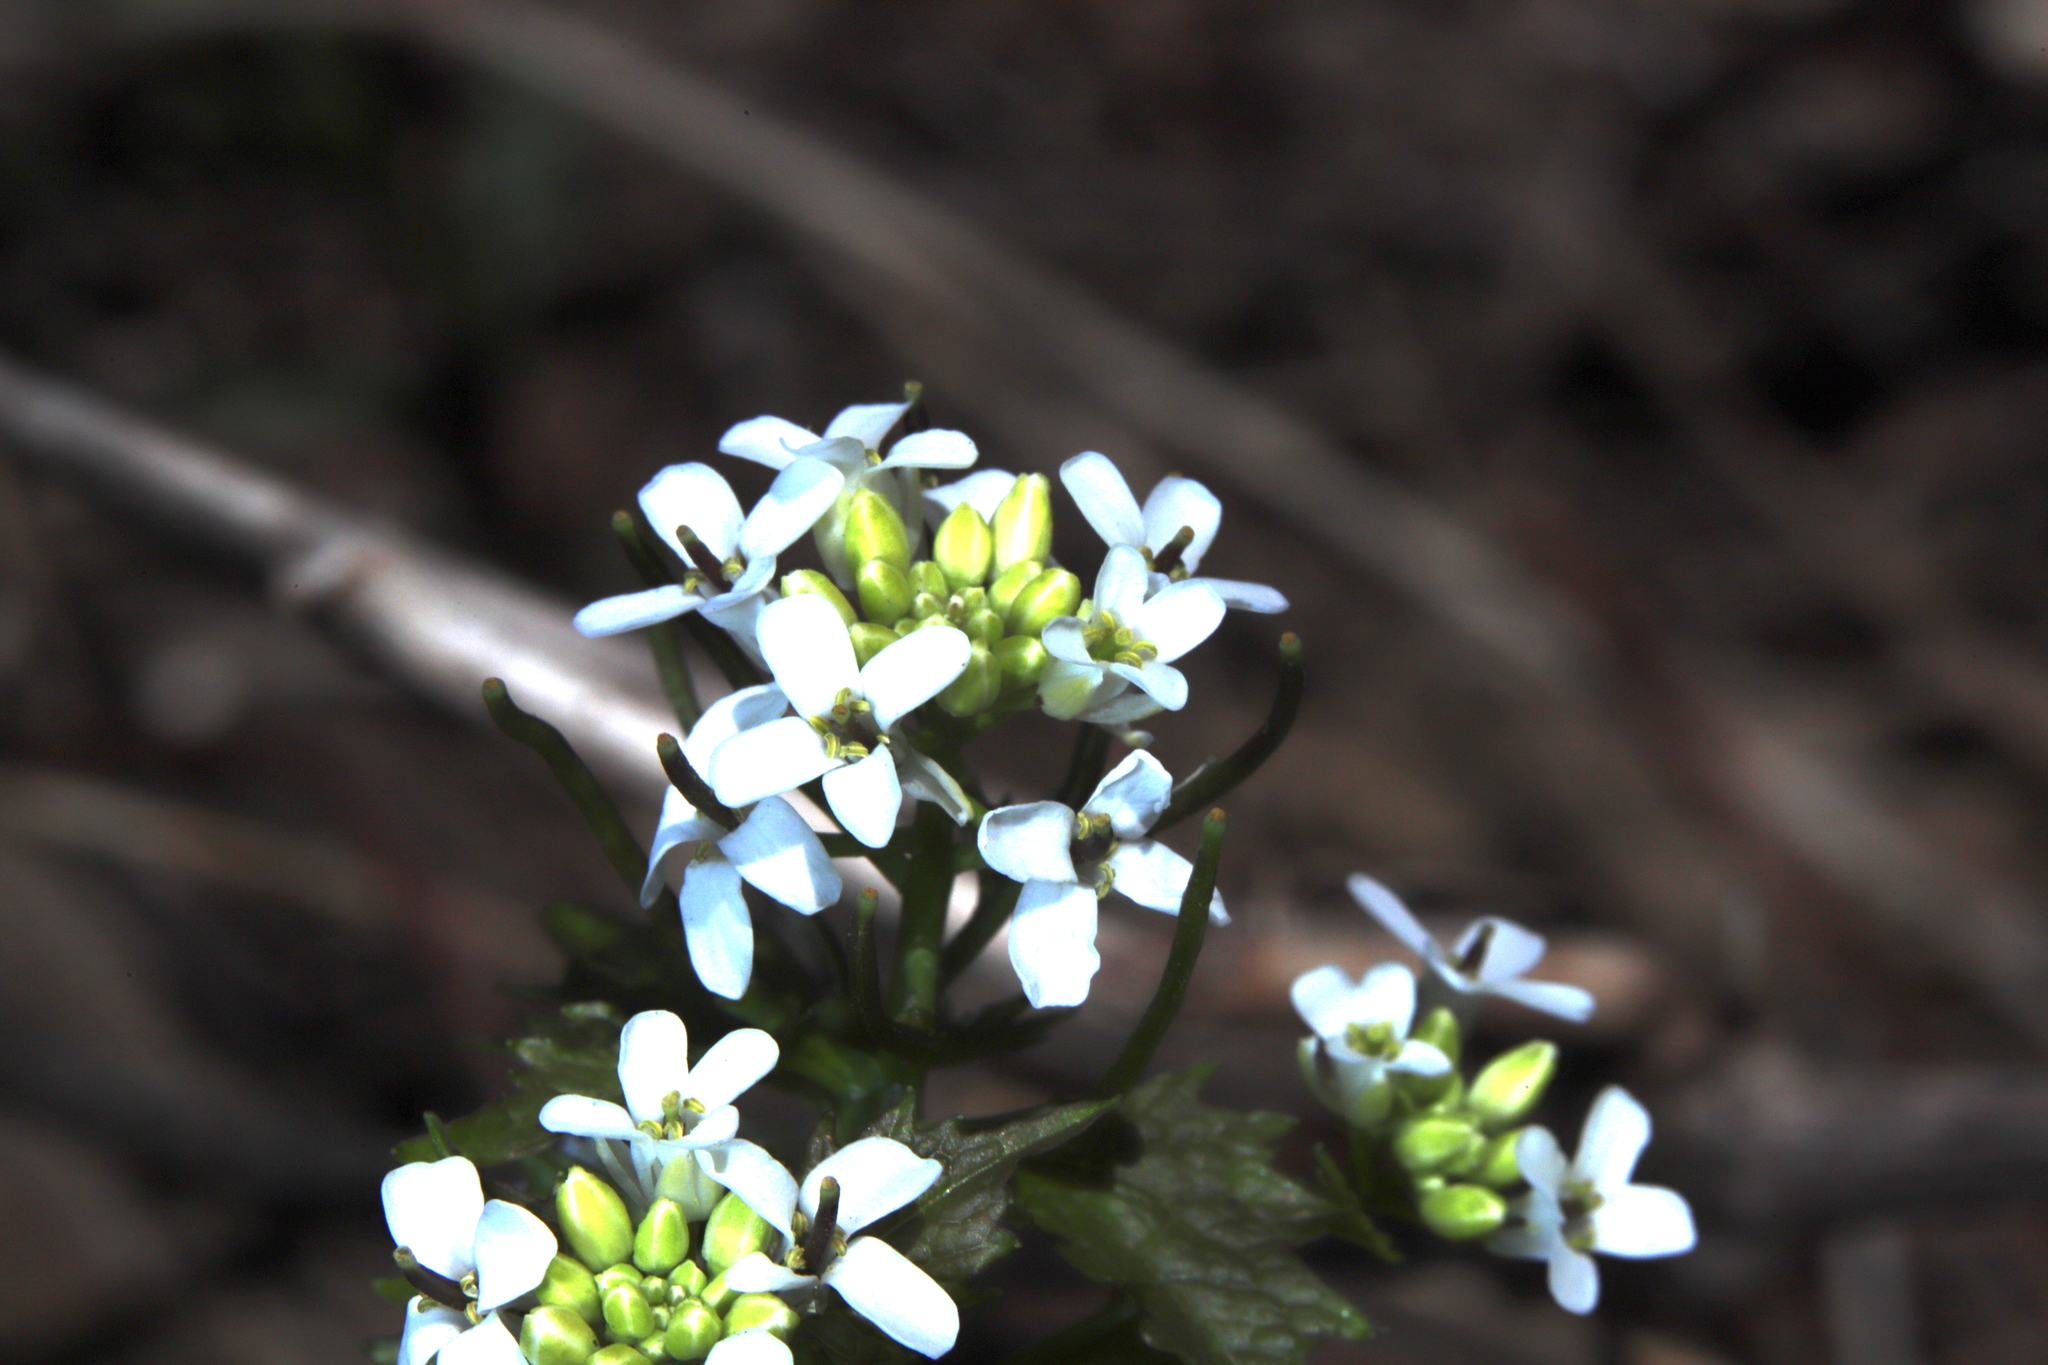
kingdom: Plantae
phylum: Tracheophyta
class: Magnoliopsida
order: Brassicales
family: Brassicaceae
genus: Alliaria
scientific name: Alliaria petiolata
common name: Garlic mustard
